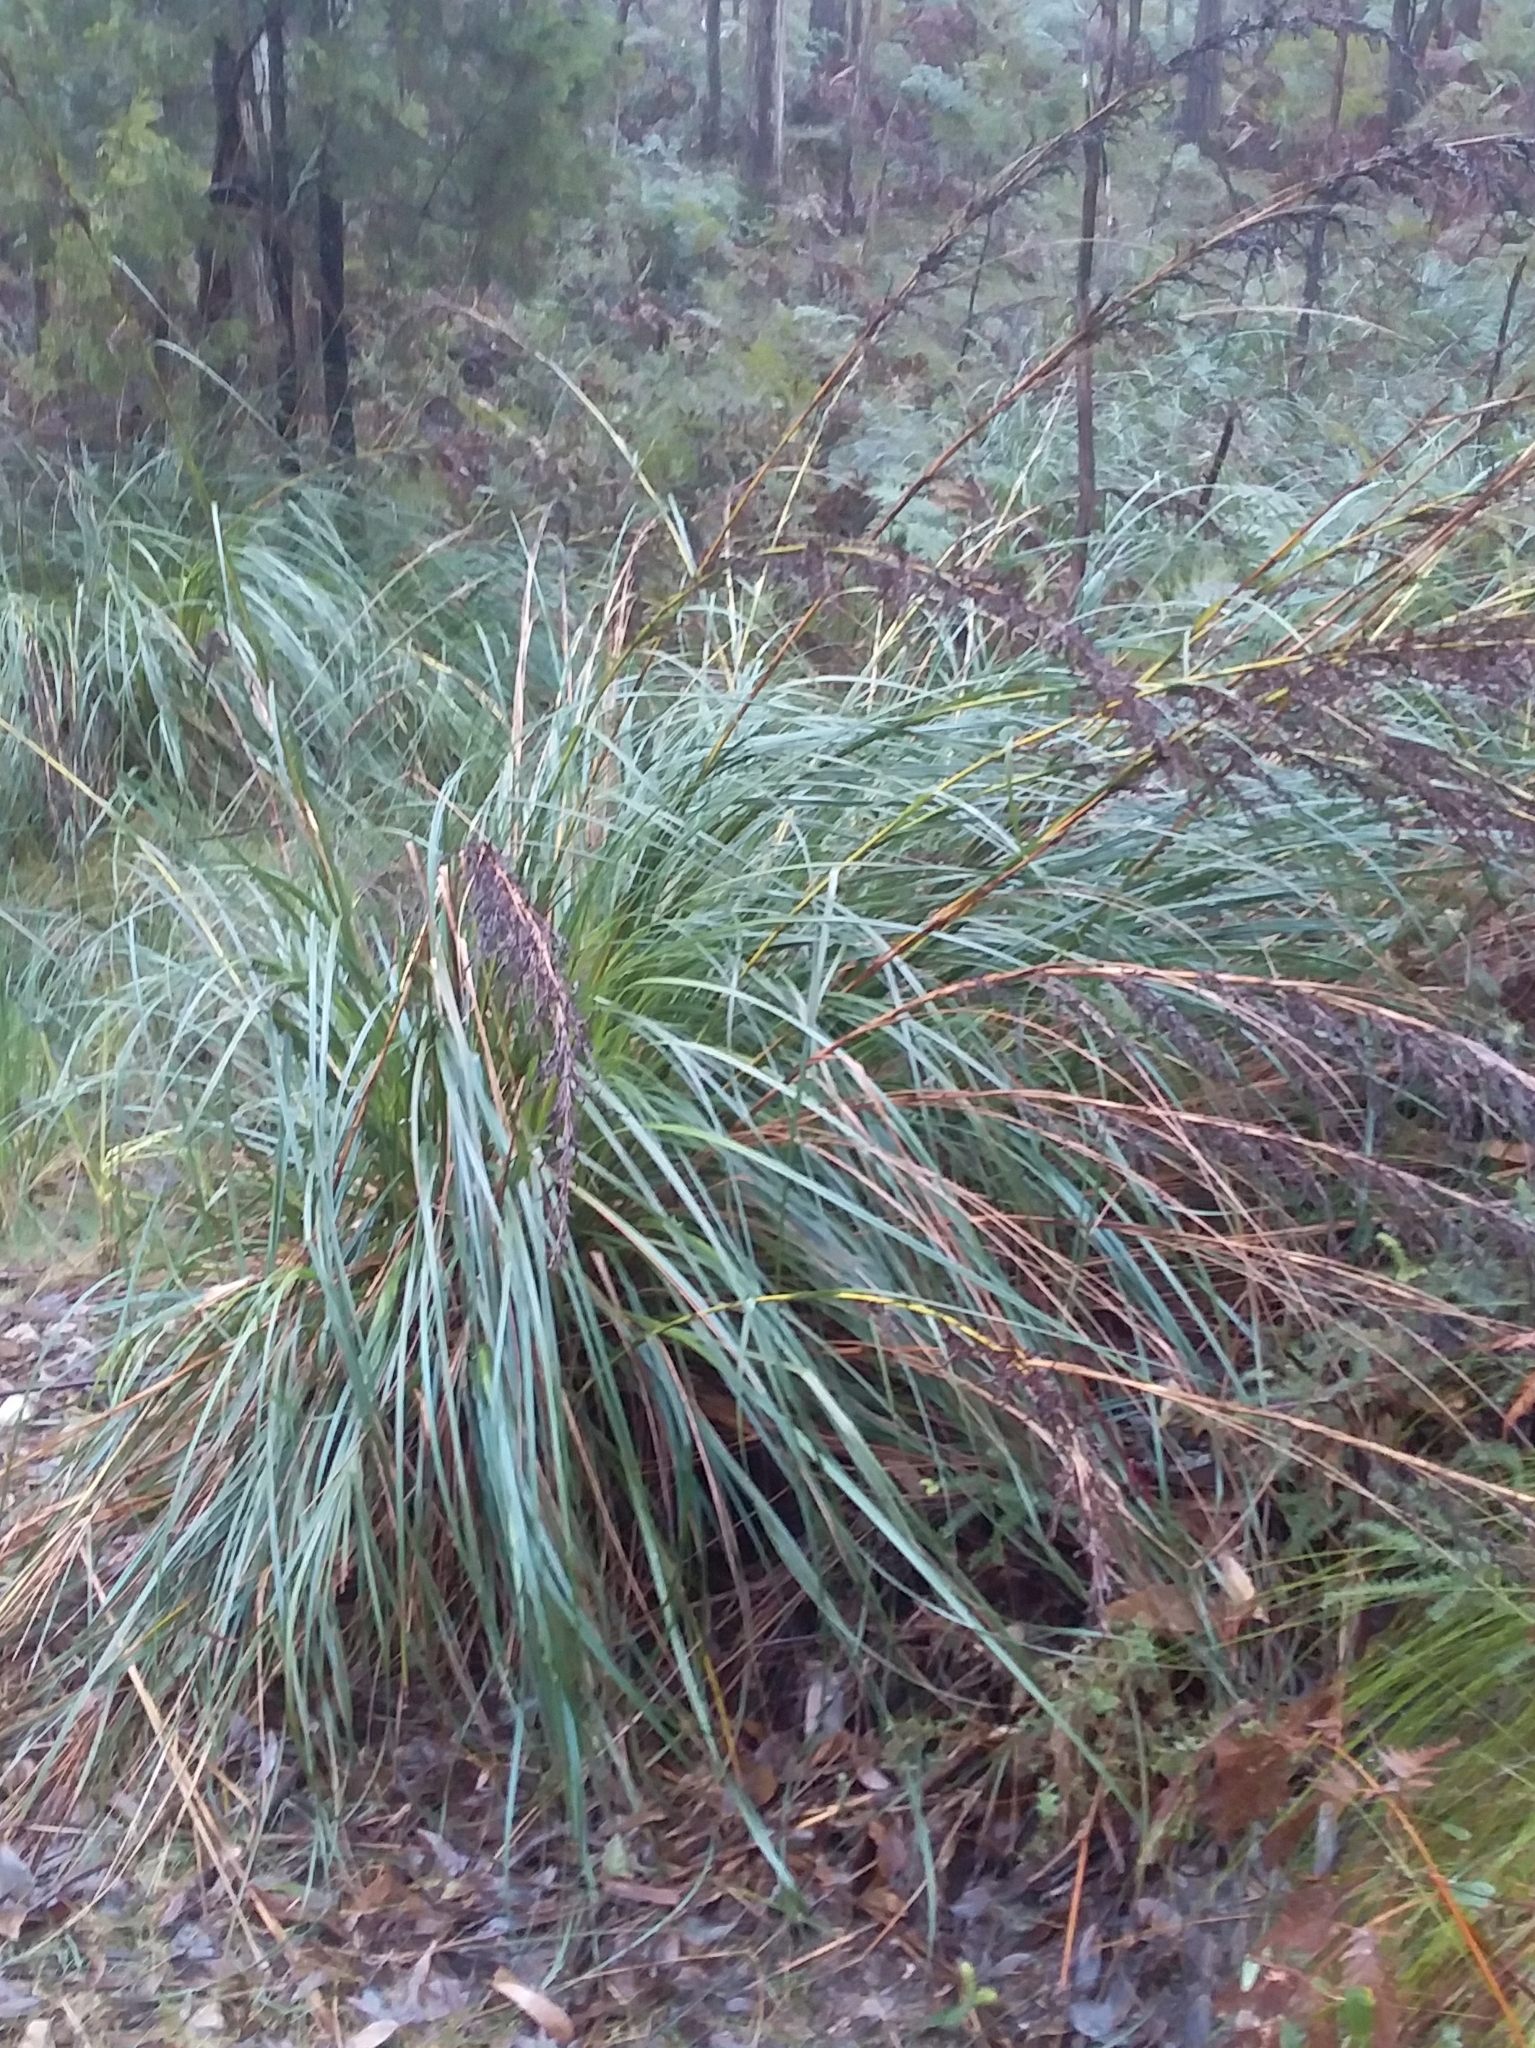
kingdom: Plantae
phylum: Tracheophyta
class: Liliopsida
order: Poales
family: Cyperaceae
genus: Gahnia
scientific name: Gahnia sieberiana
